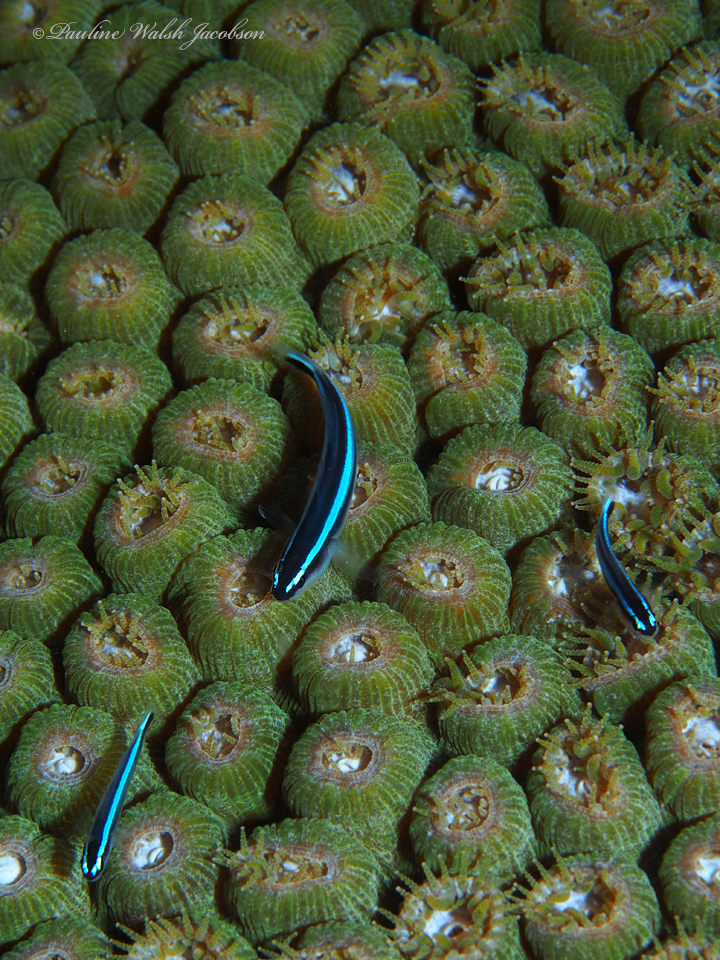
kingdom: Animalia
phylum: Cnidaria
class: Anthozoa
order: Scleractinia
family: Montastraeidae
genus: Montastraea
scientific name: Montastraea cavernosa
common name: Great star coral
